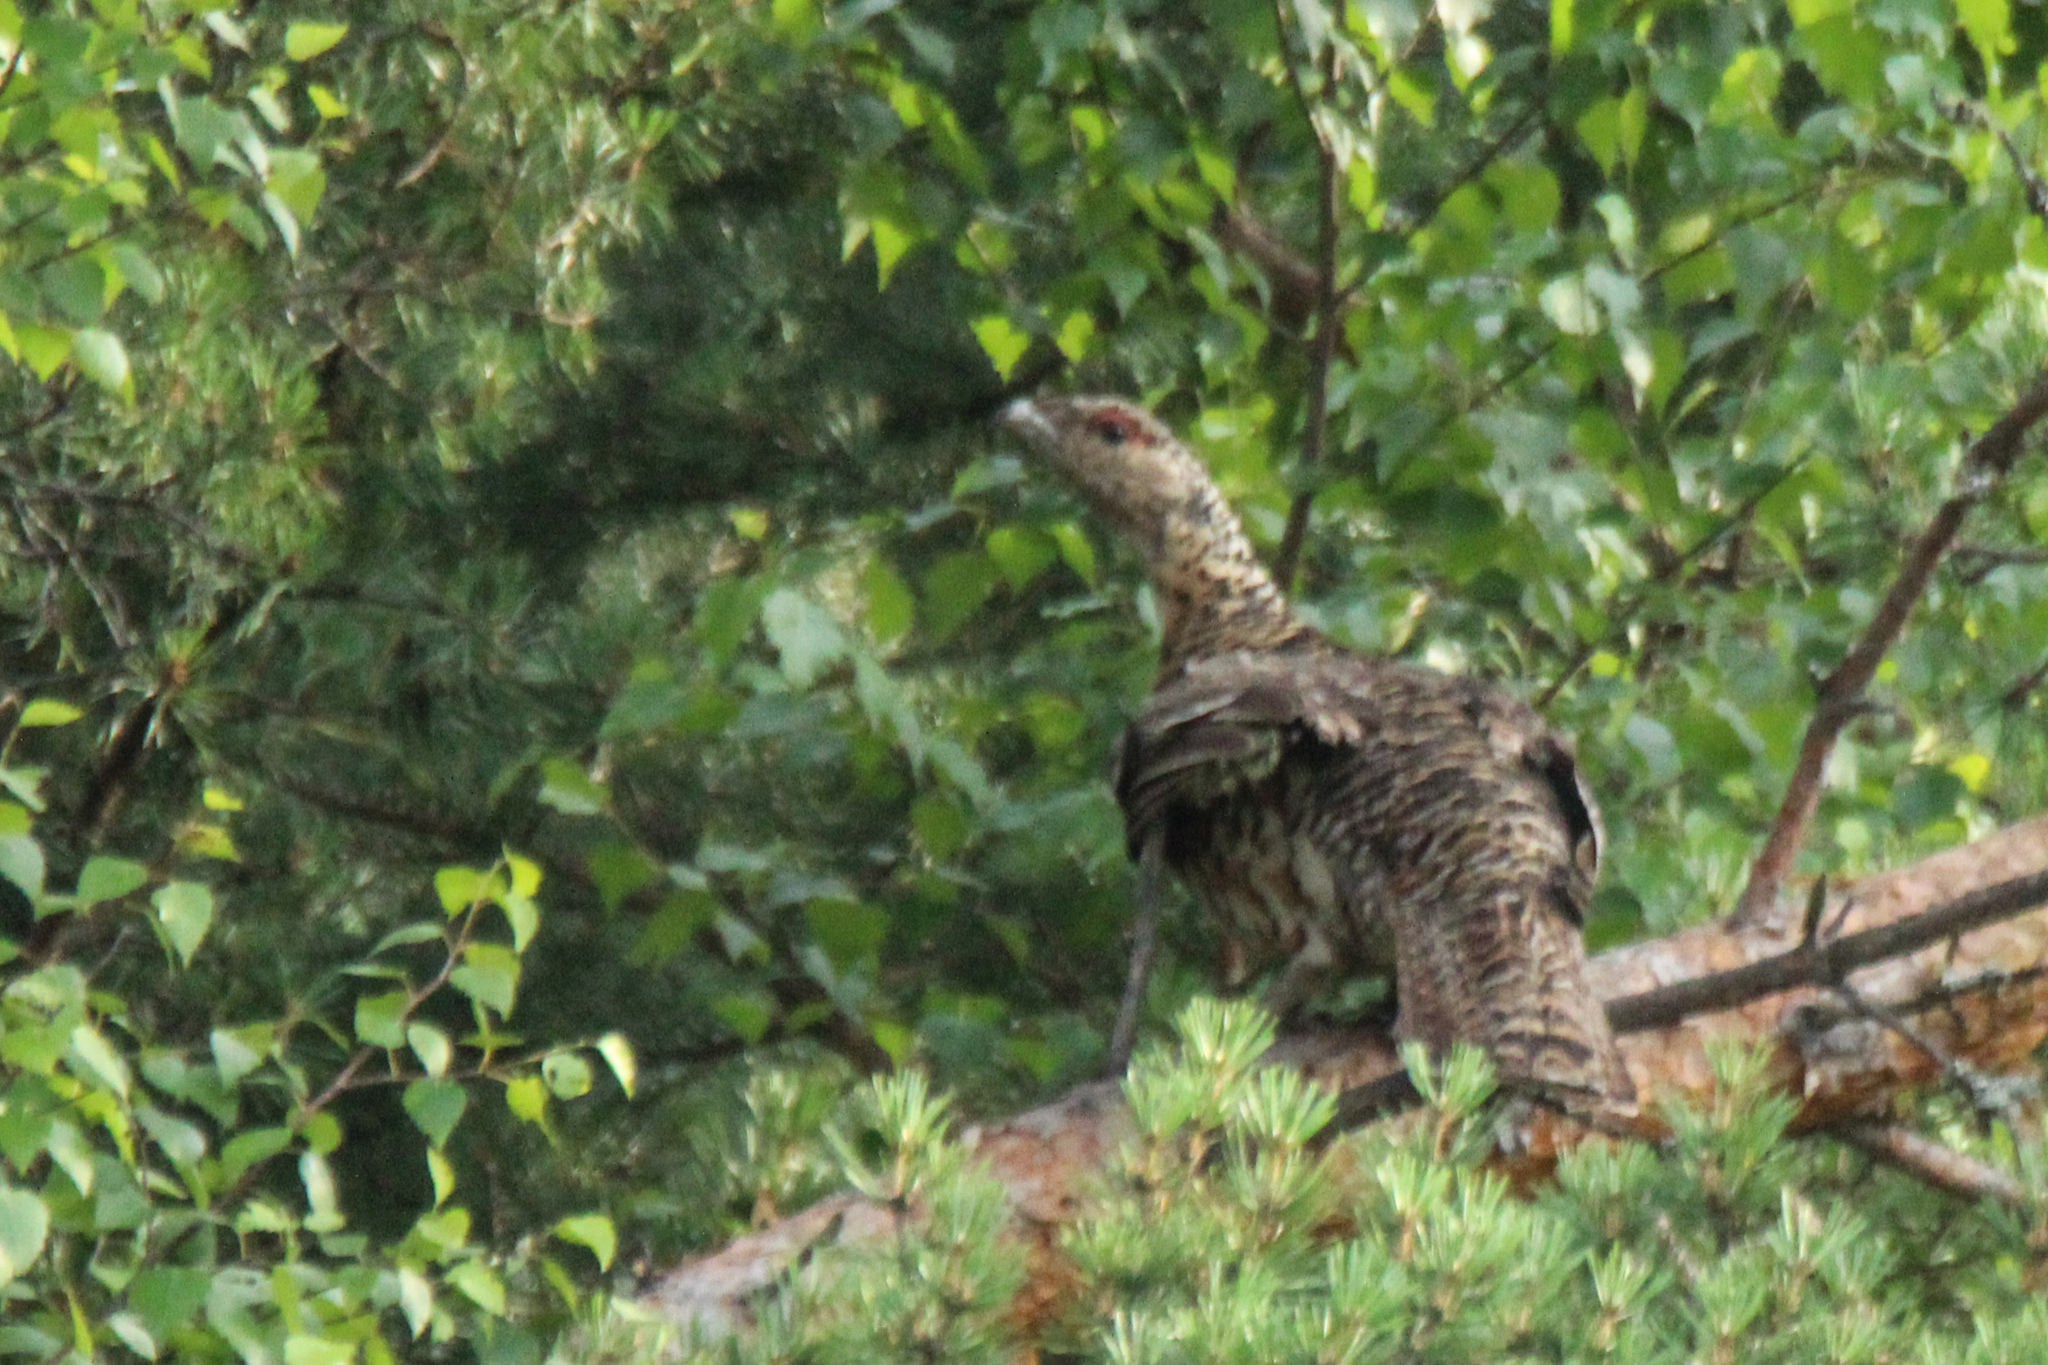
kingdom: Animalia
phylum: Chordata
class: Aves
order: Galliformes
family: Phasianidae
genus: Tetrao
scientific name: Tetrao urogallus
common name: Western capercaillie
